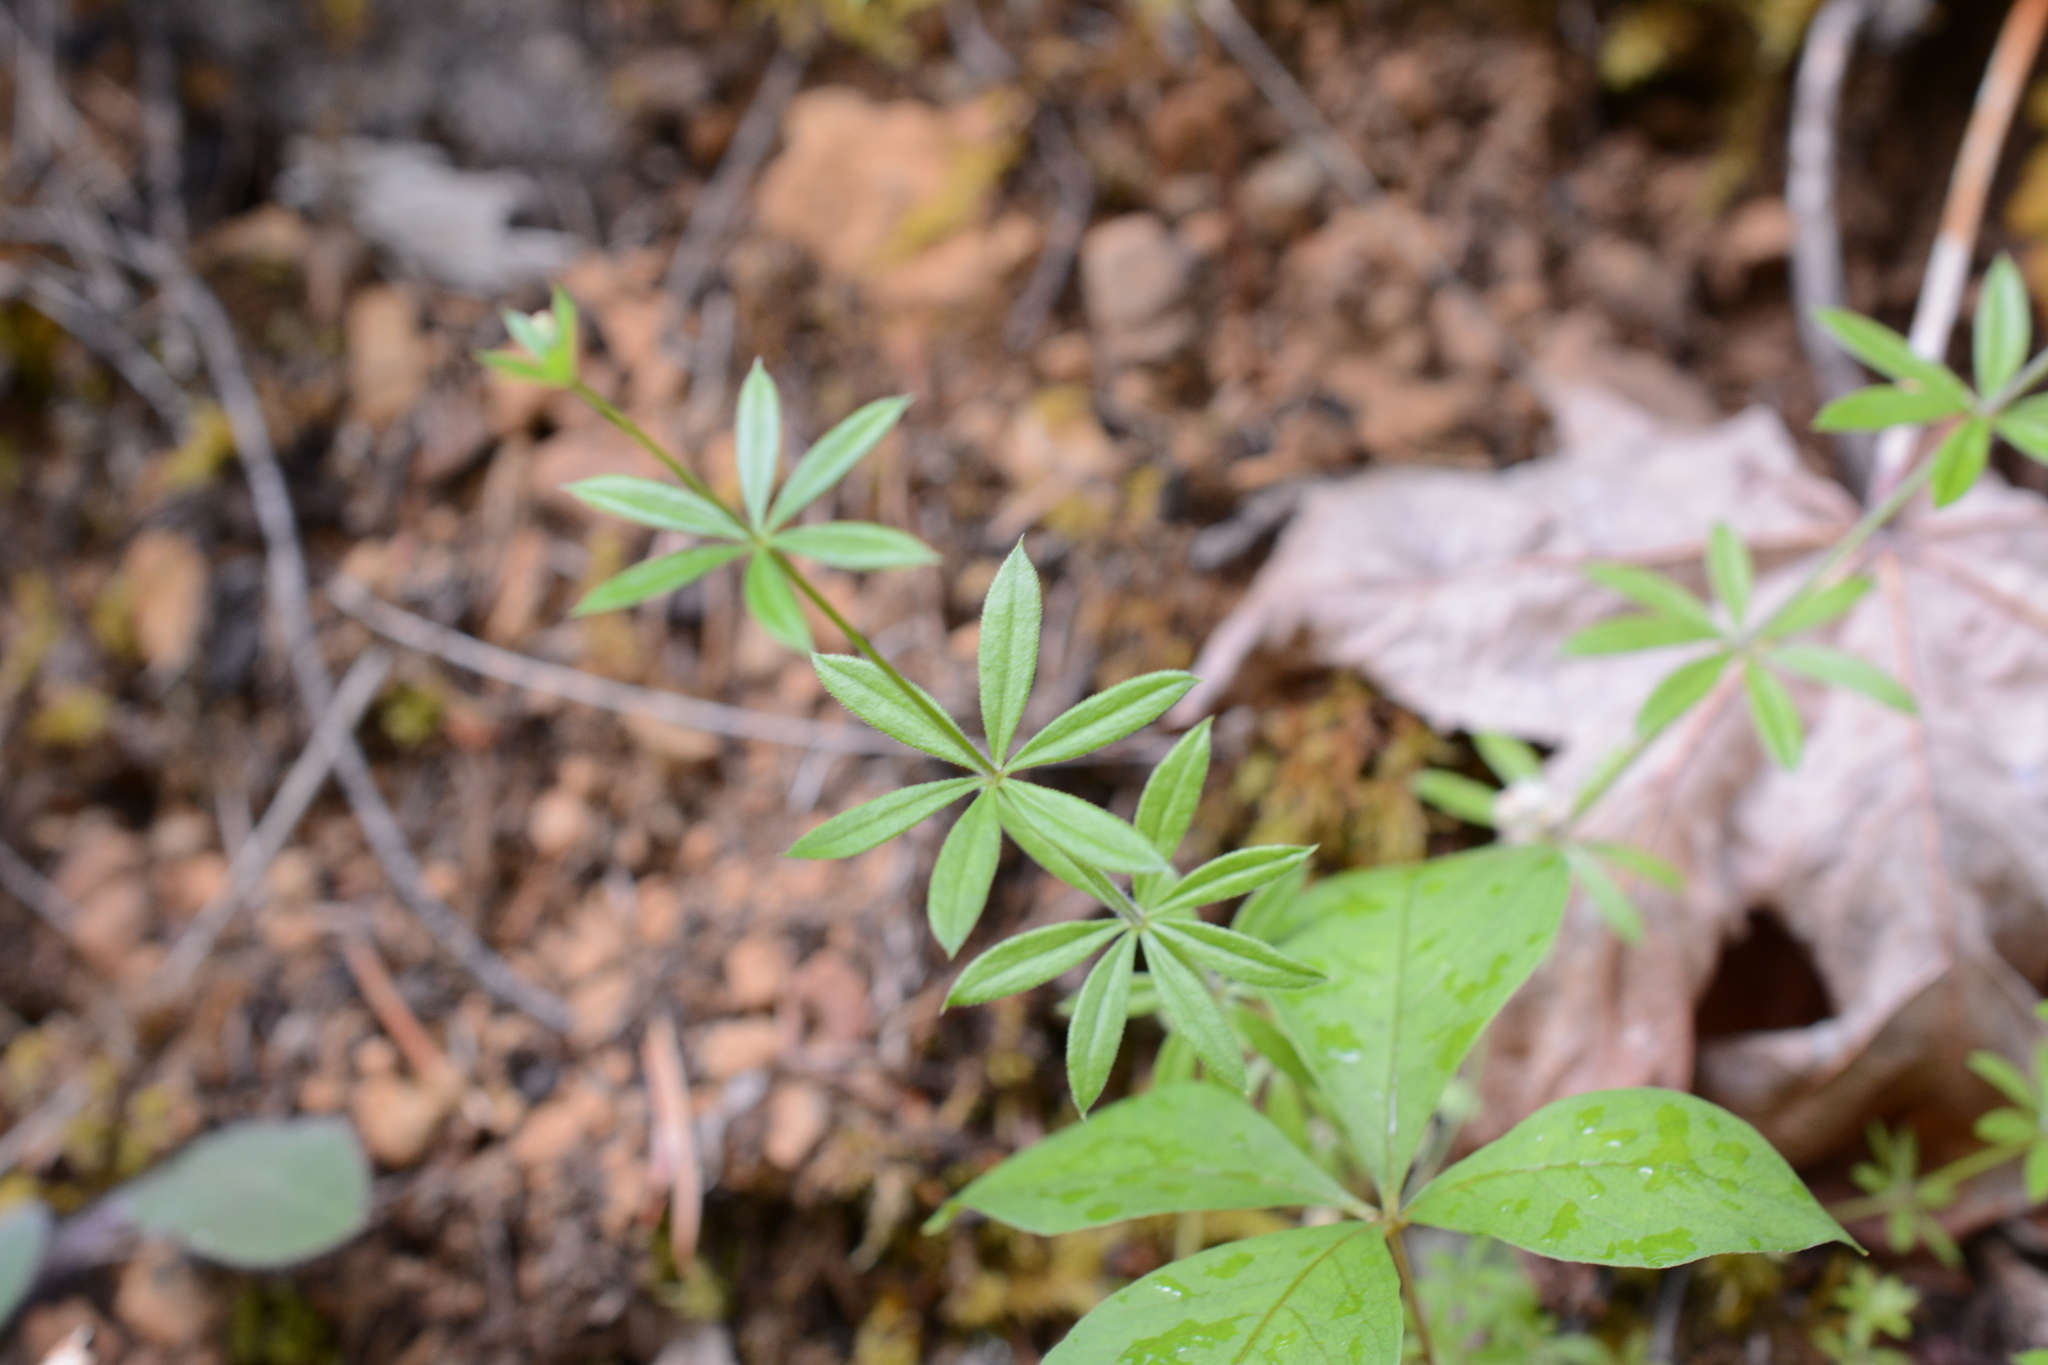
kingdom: Plantae
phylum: Tracheophyta
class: Magnoliopsida
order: Gentianales
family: Rubiaceae
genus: Galium
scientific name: Galium triflorum
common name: Fragrant bedstraw
